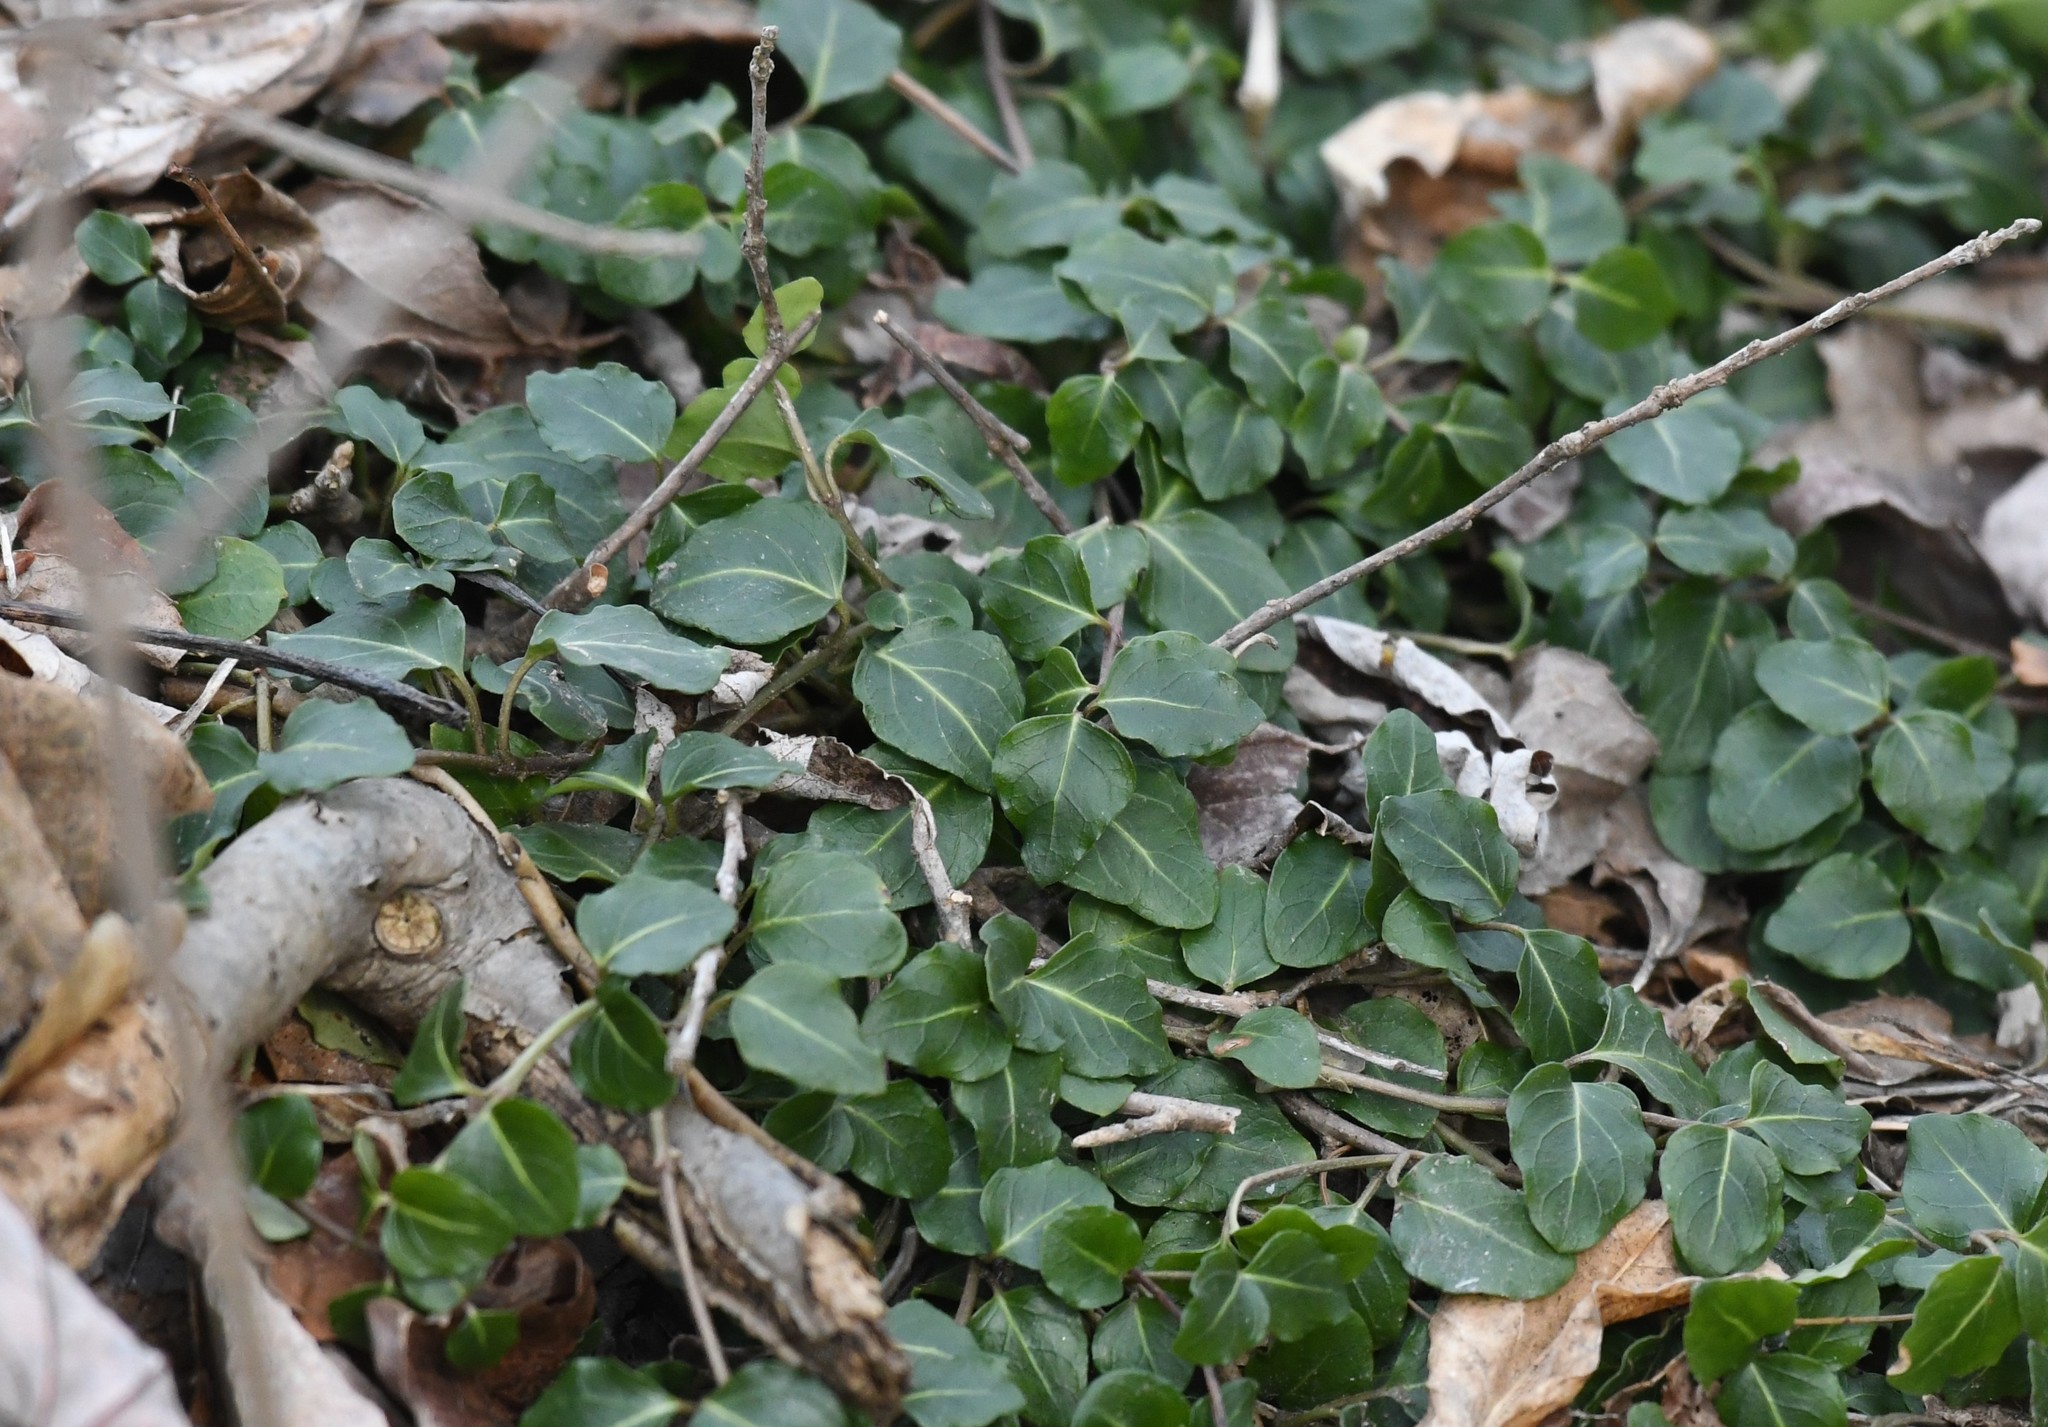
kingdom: Plantae
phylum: Tracheophyta
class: Magnoliopsida
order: Gentianales
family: Rubiaceae
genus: Mitchella
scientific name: Mitchella repens
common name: Partridge-berry
